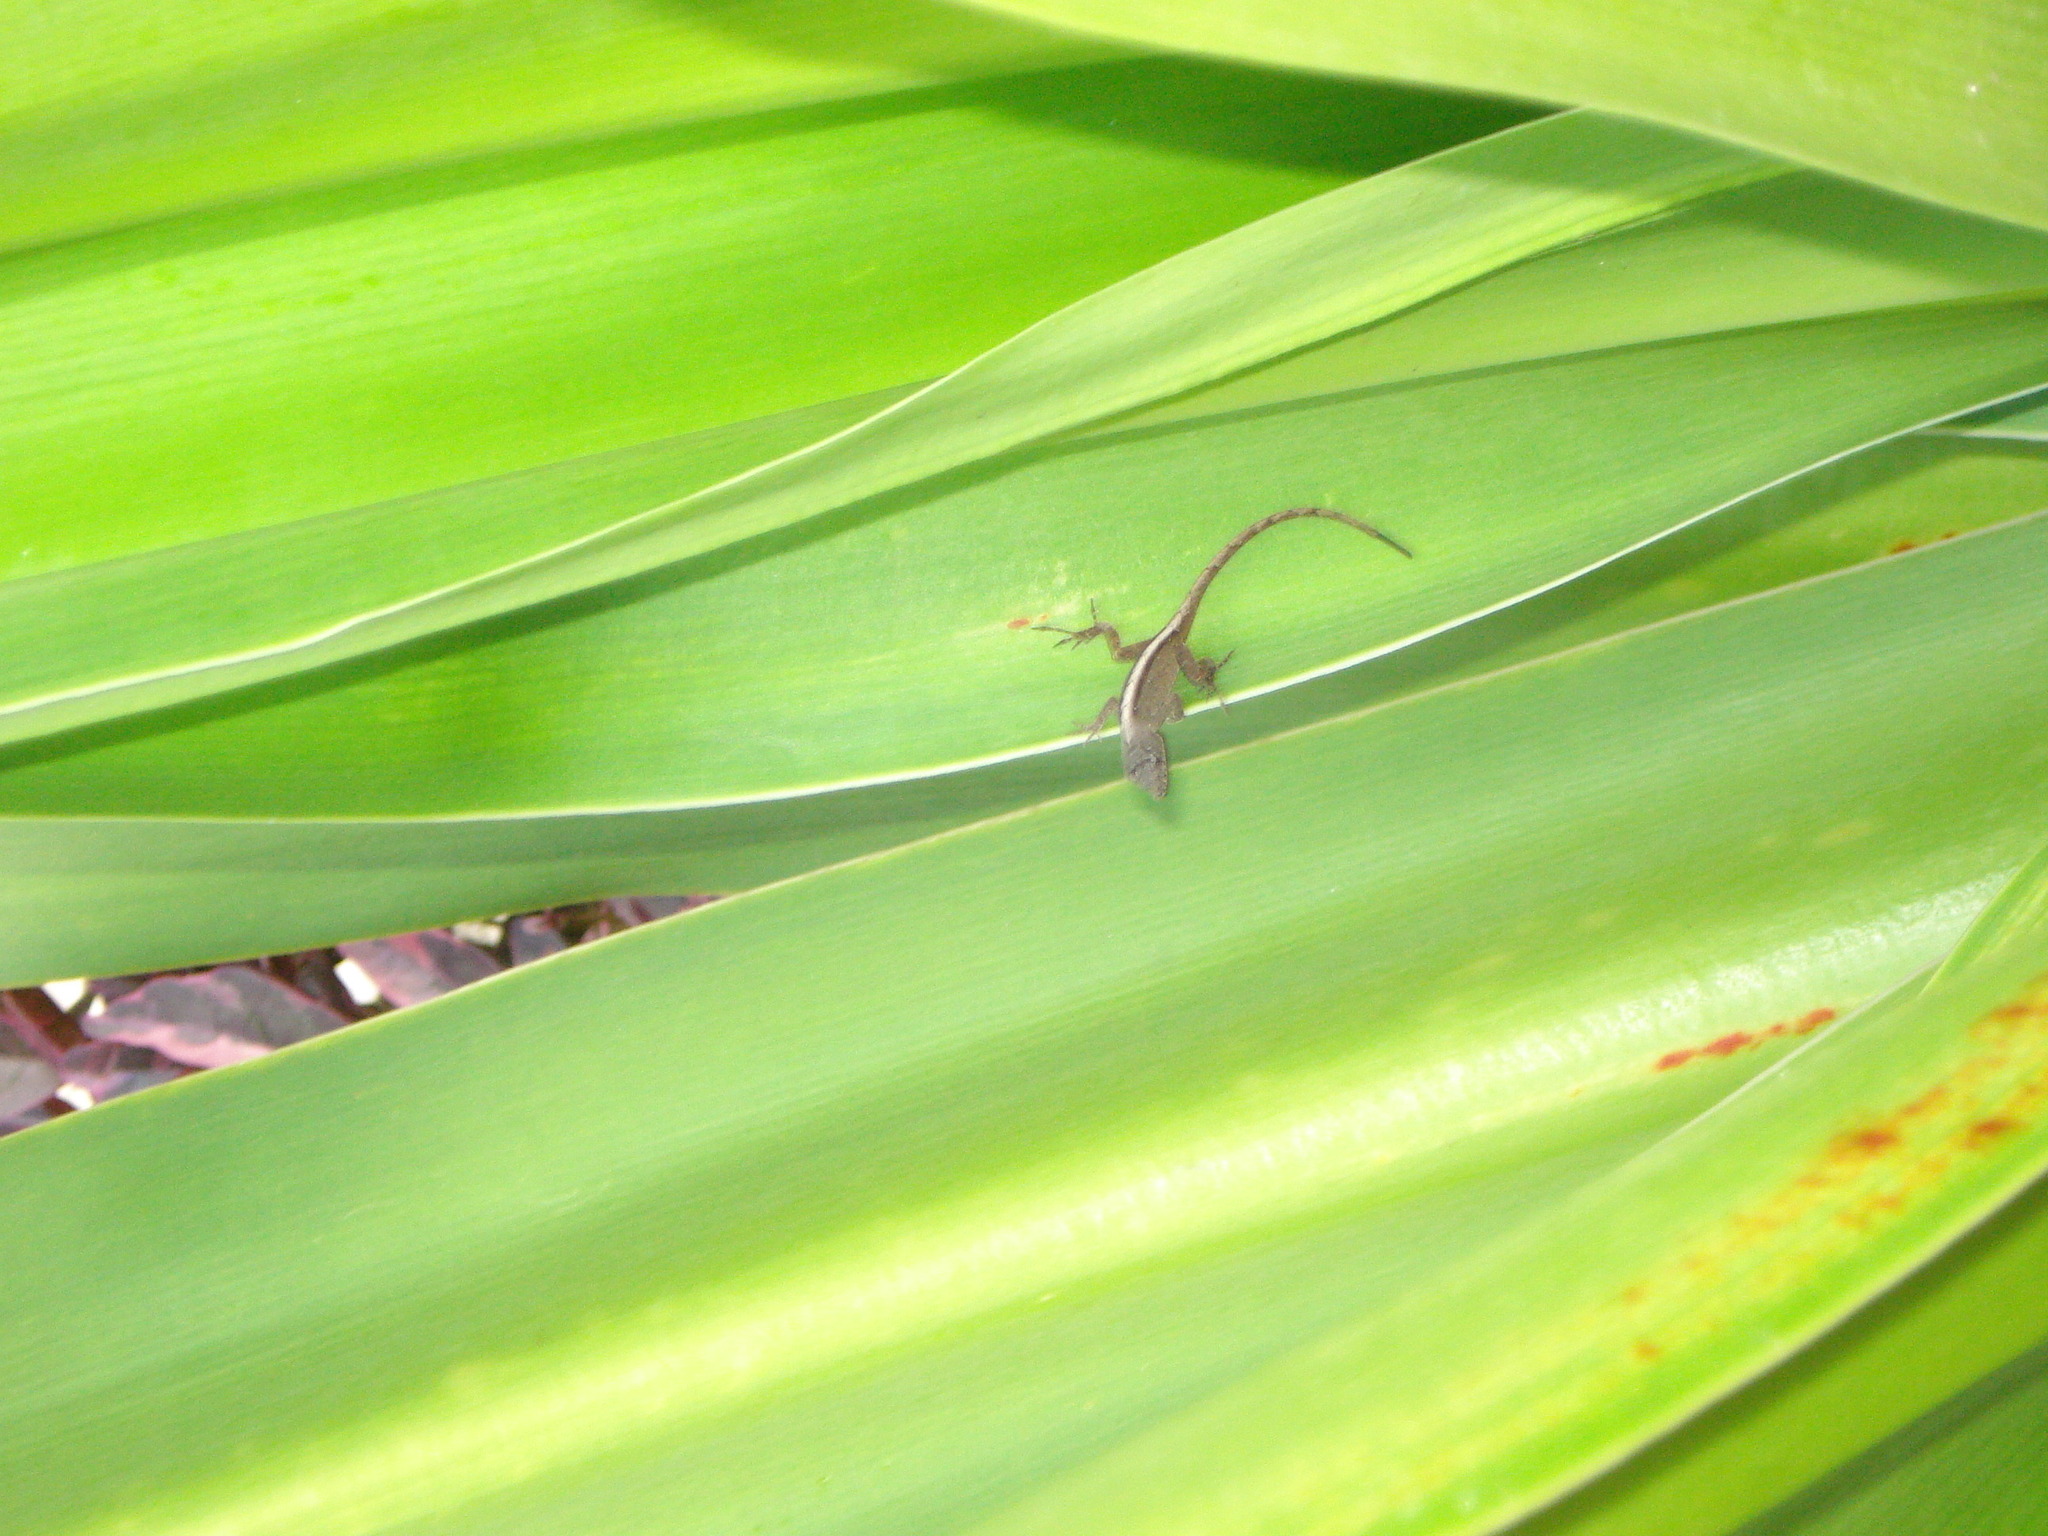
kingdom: Animalia
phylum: Chordata
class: Squamata
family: Dactyloidae
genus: Anolis
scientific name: Anolis sagrei
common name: Brown anole
